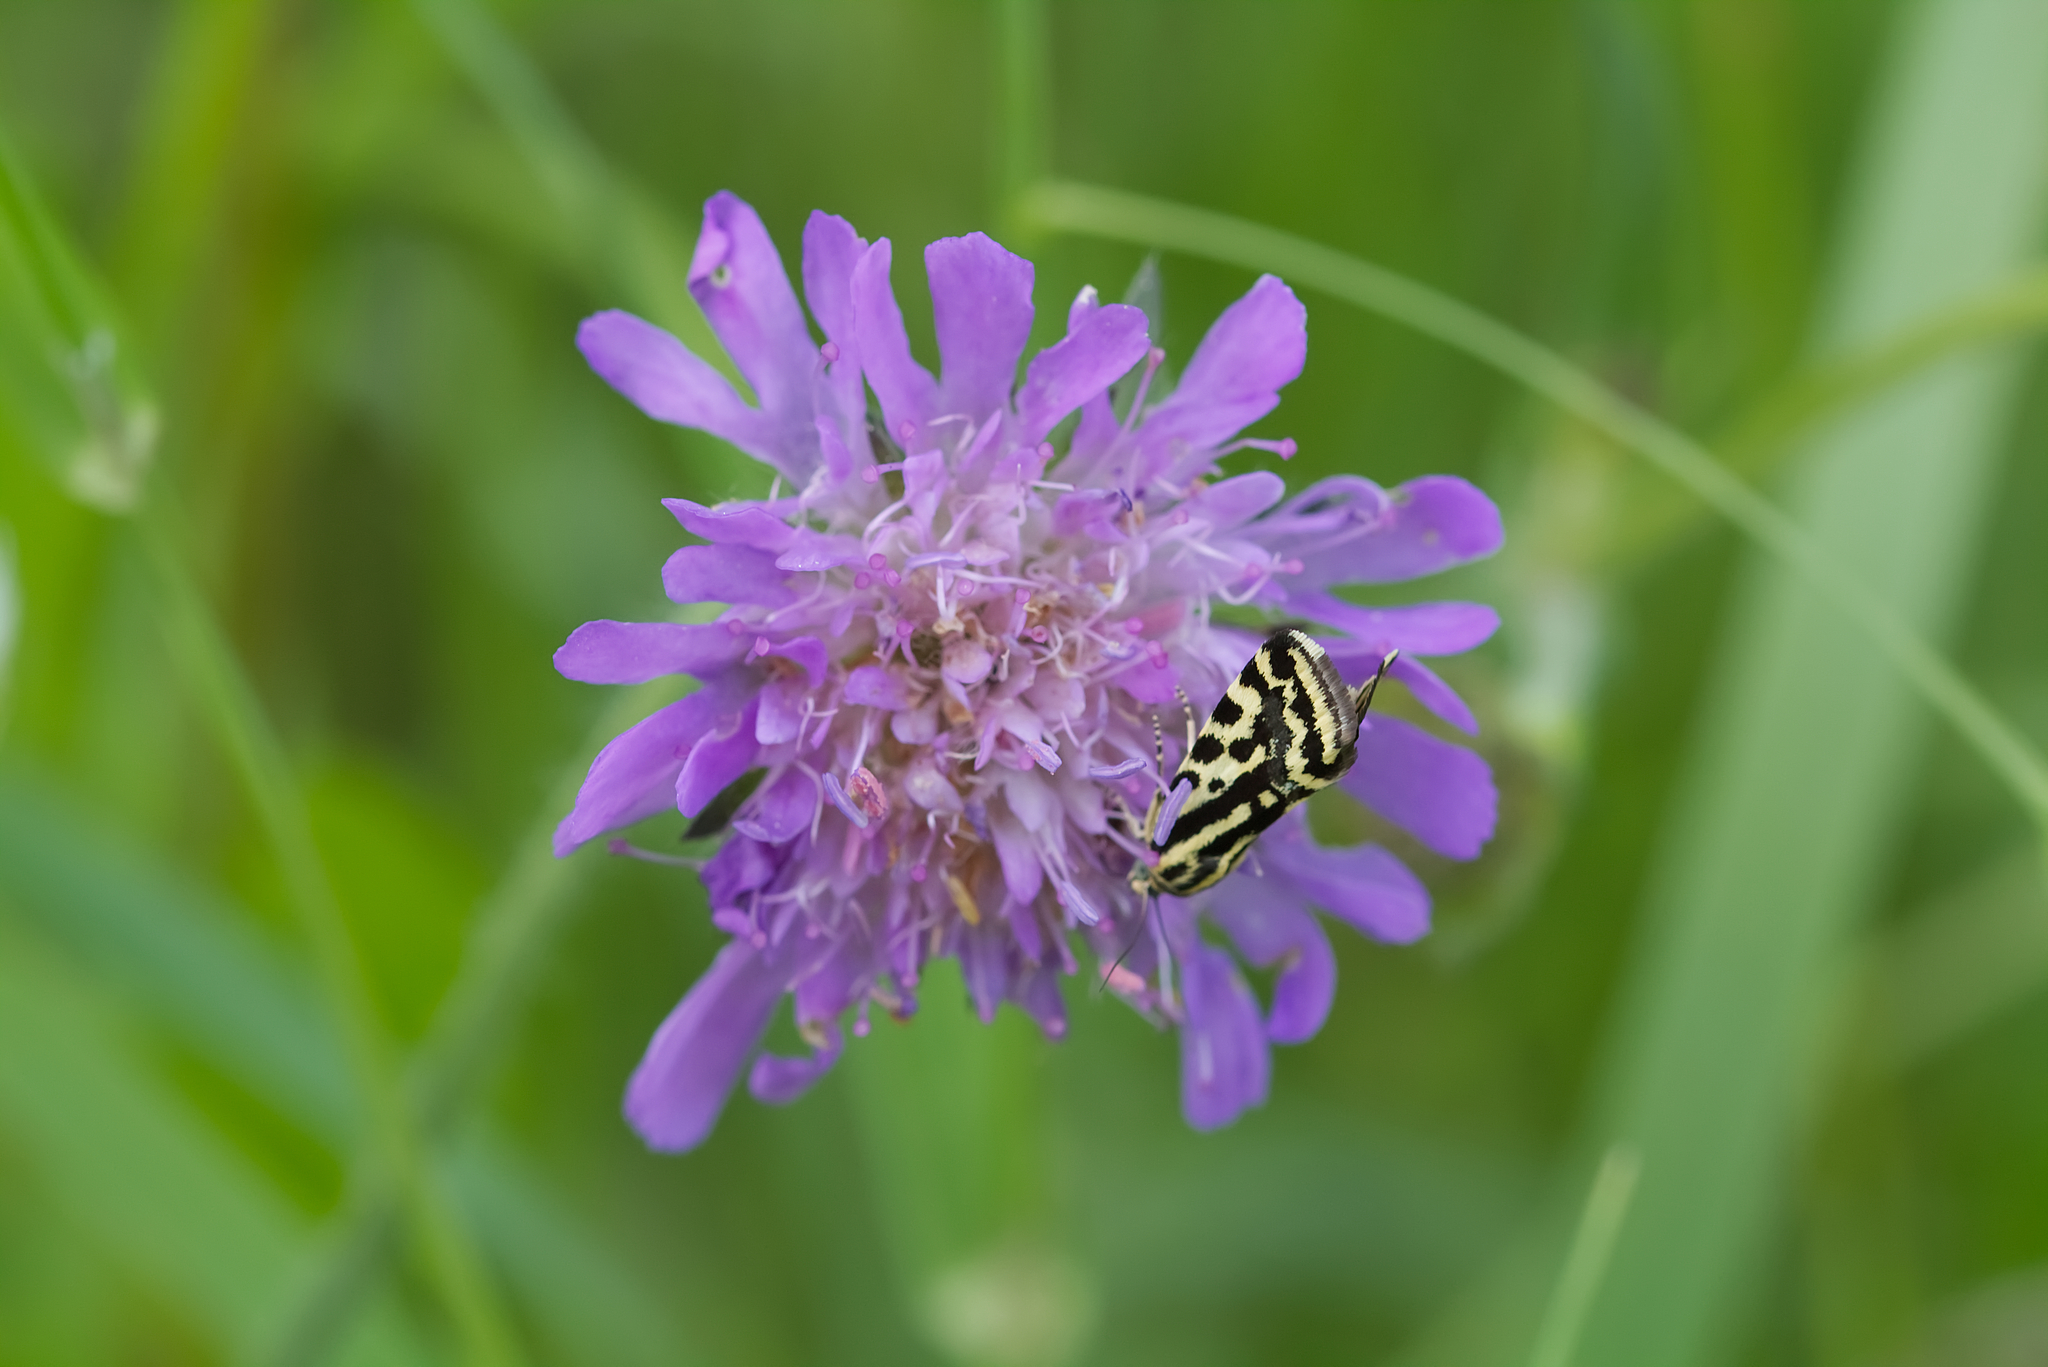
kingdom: Animalia
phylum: Arthropoda
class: Insecta
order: Lepidoptera
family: Noctuidae
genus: Acontia
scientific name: Acontia trabealis
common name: Spotted sulphur
